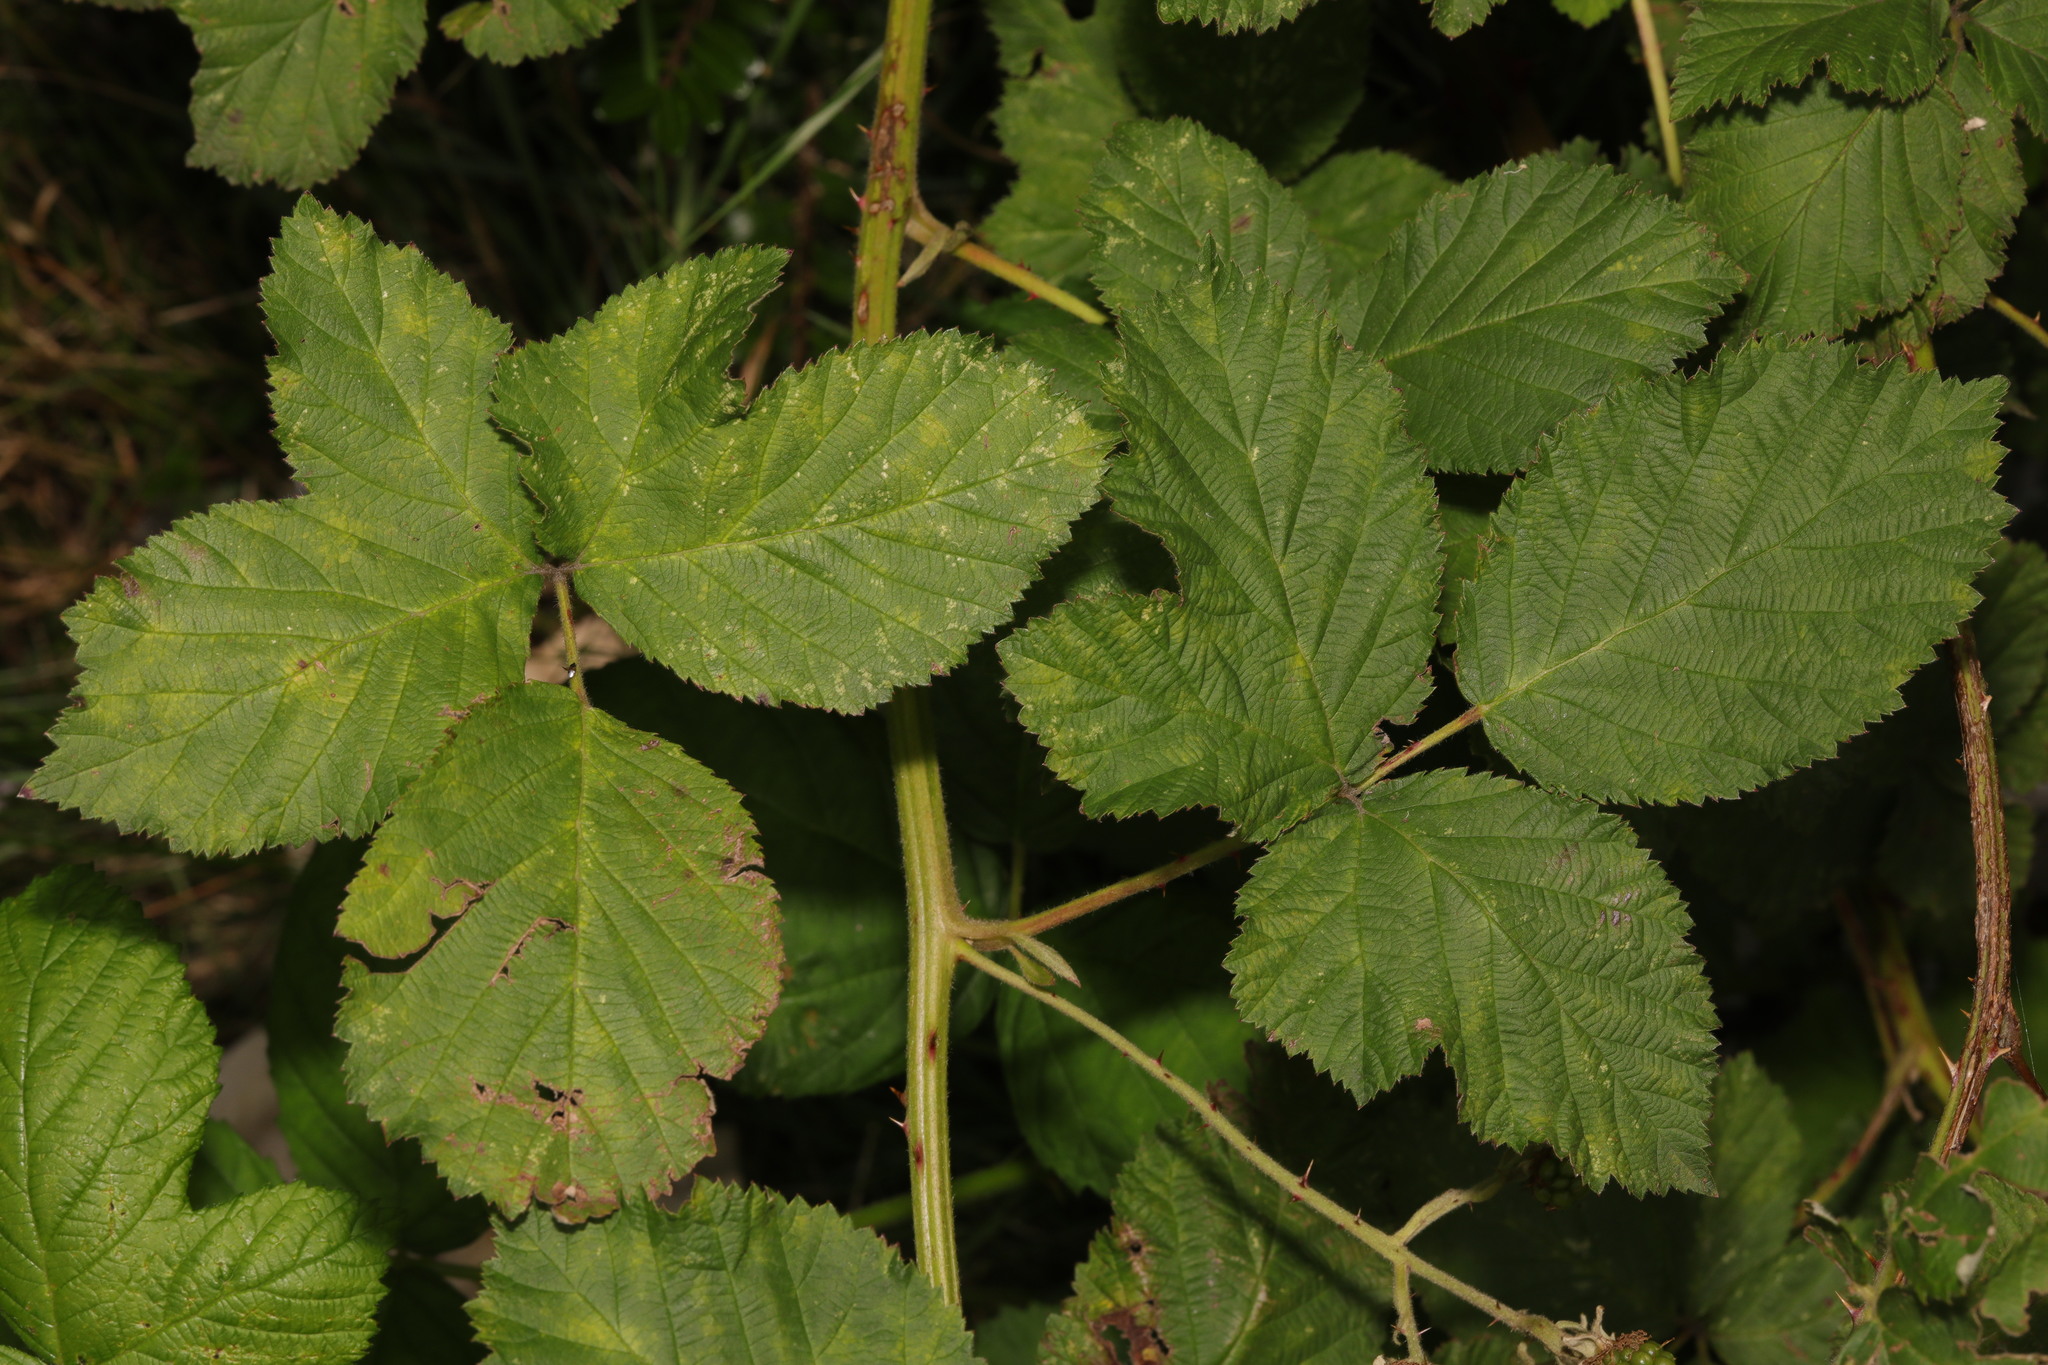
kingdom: Plantae
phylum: Tracheophyta
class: Magnoliopsida
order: Rosales
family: Rosaceae
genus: Rubus
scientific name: Rubus armeniacus
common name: Himalayan blackberry
